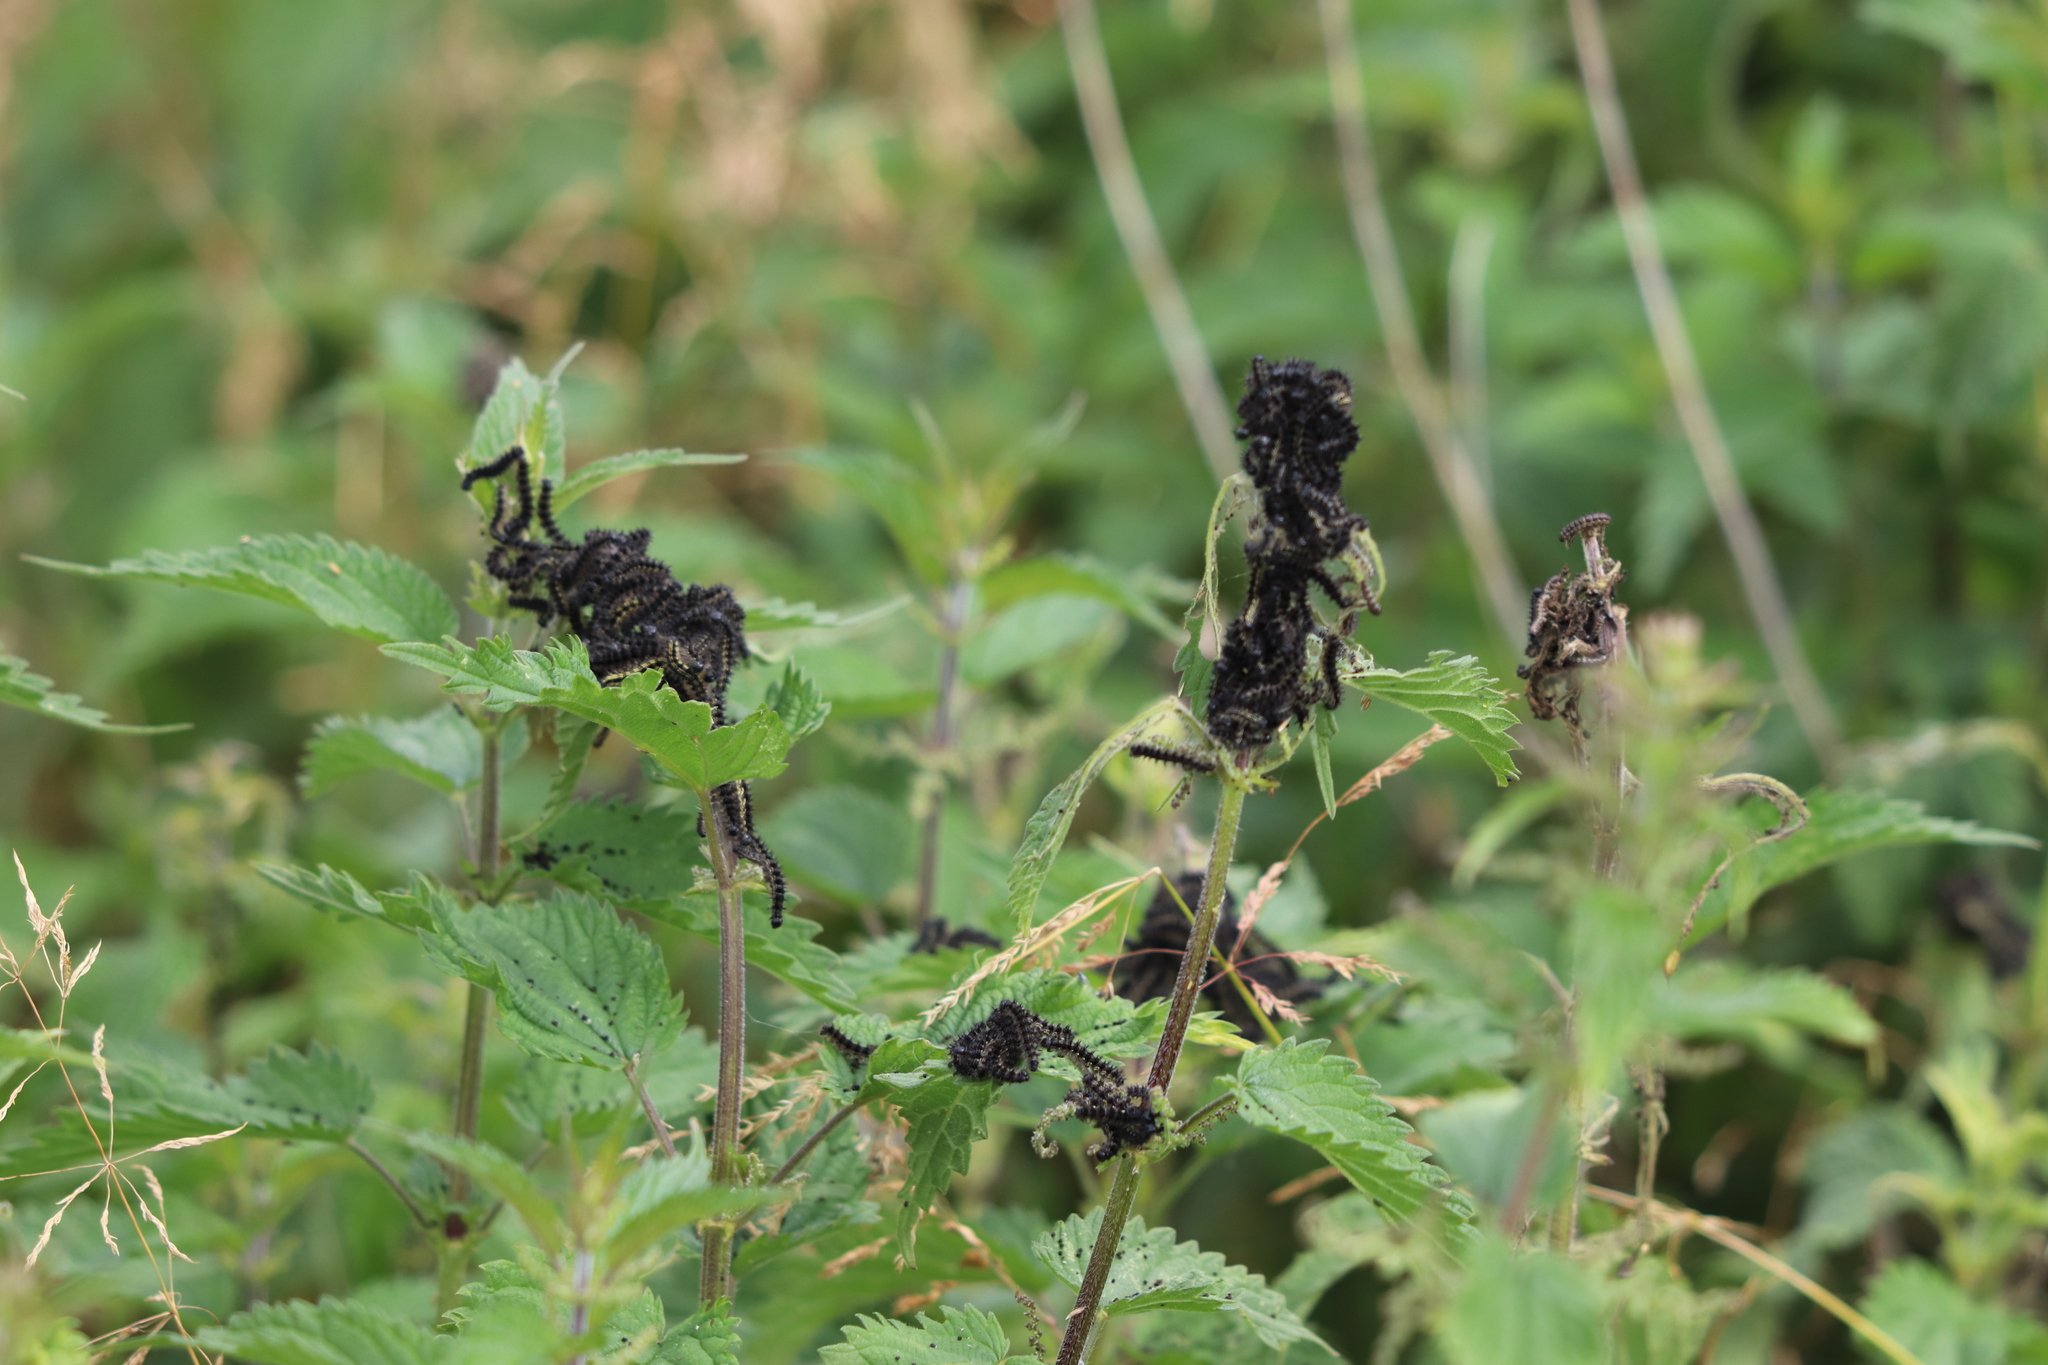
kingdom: Animalia
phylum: Arthropoda
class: Insecta
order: Lepidoptera
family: Nymphalidae
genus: Aglais
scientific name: Aglais urticae
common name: Small tortoiseshell
